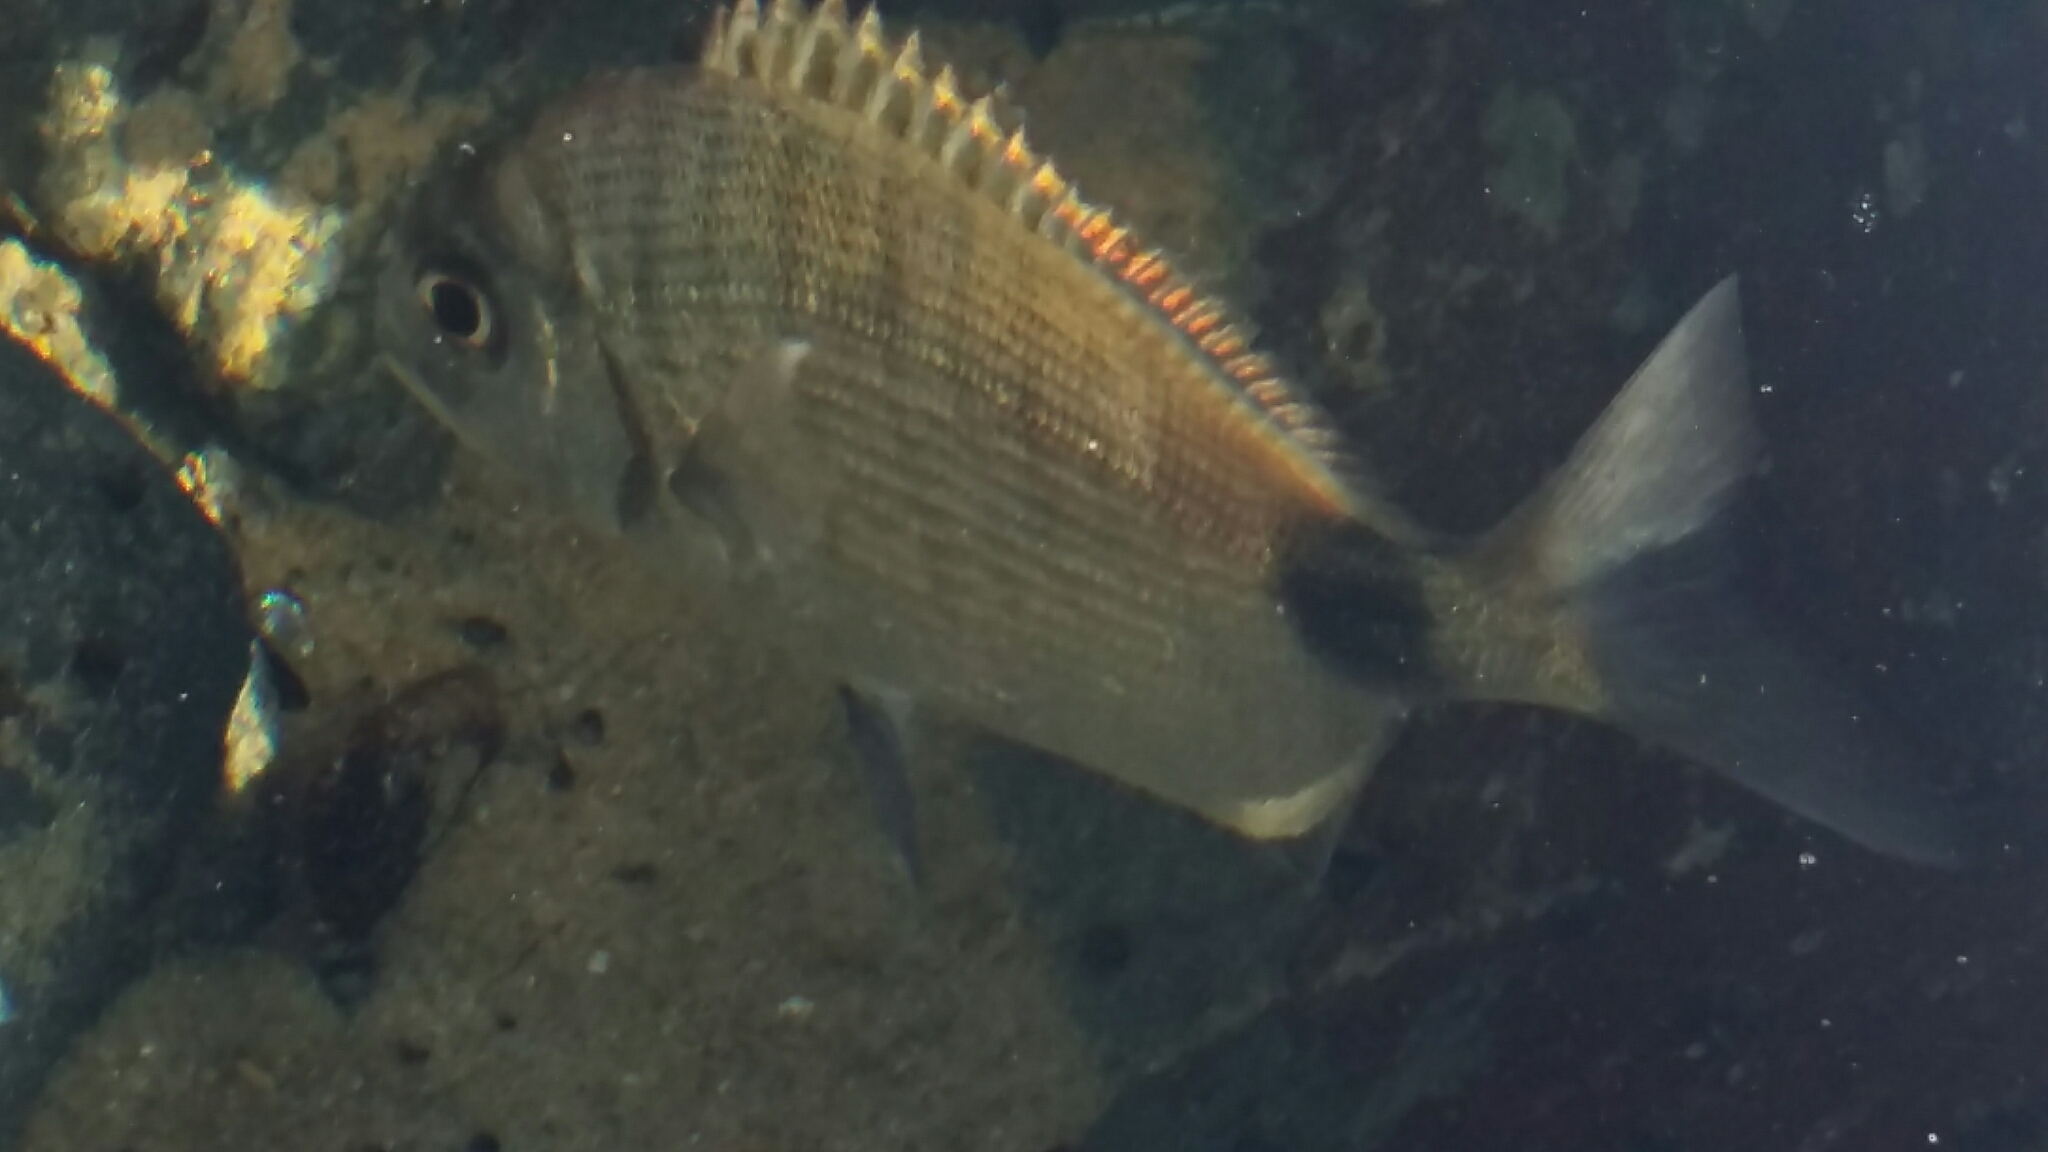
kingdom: Animalia
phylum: Chordata
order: Perciformes
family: Sparidae
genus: Diplodus
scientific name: Diplodus capensis
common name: Blacktail
